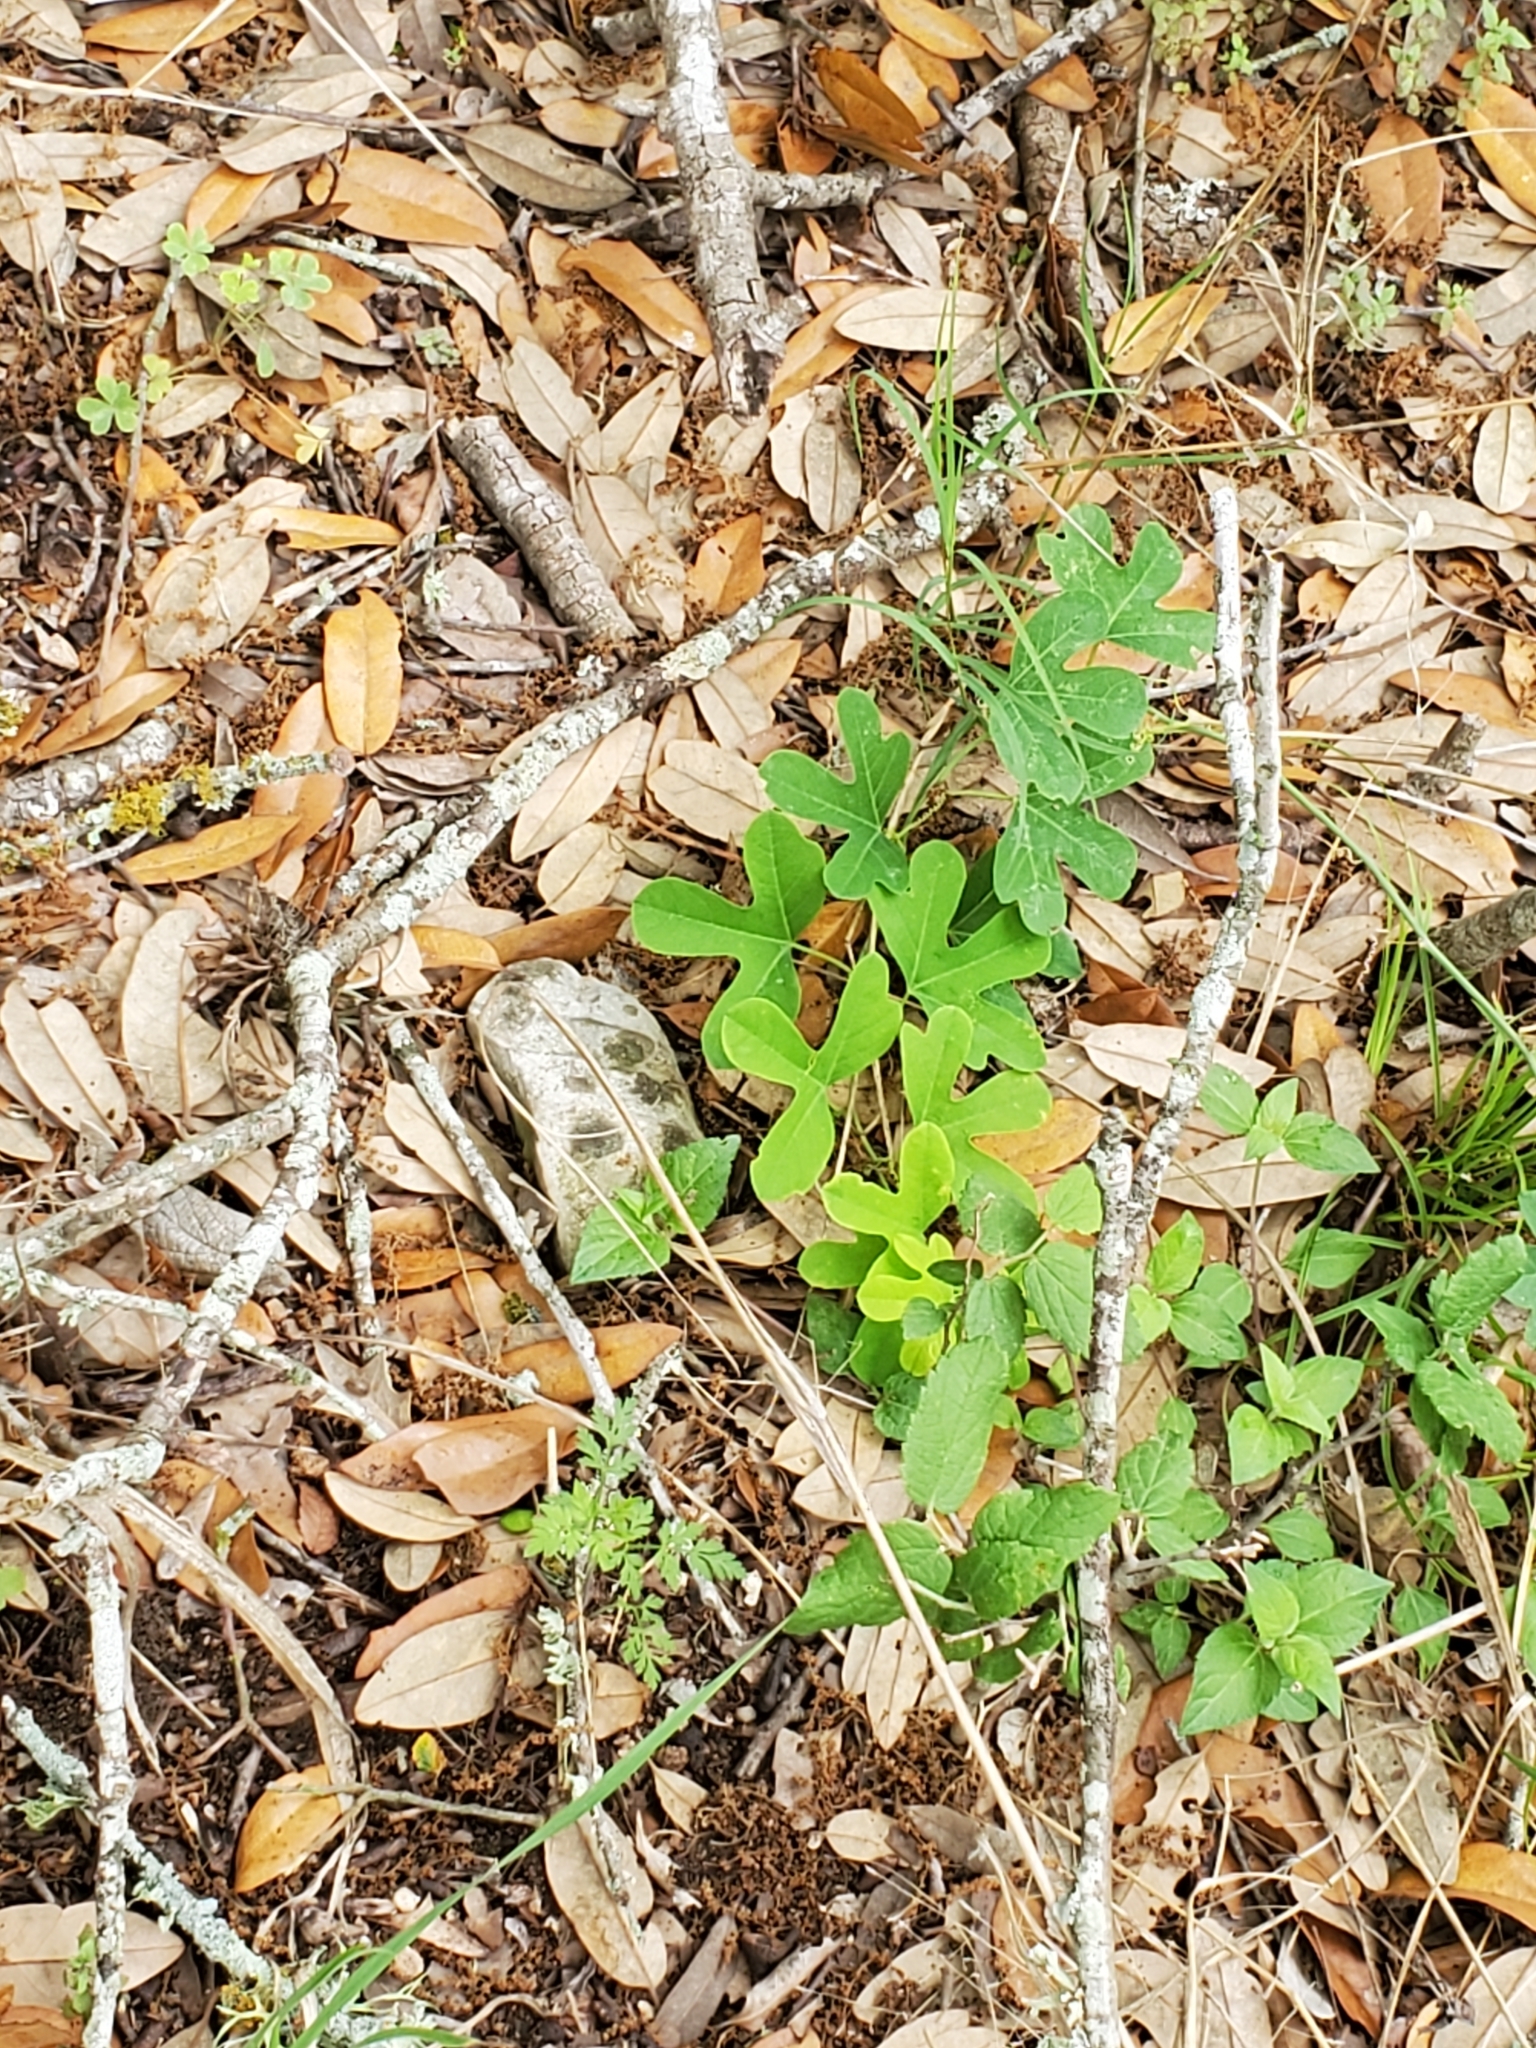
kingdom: Plantae
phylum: Tracheophyta
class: Magnoliopsida
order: Malpighiales
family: Passifloraceae
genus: Passiflora
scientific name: Passiflora affinis
